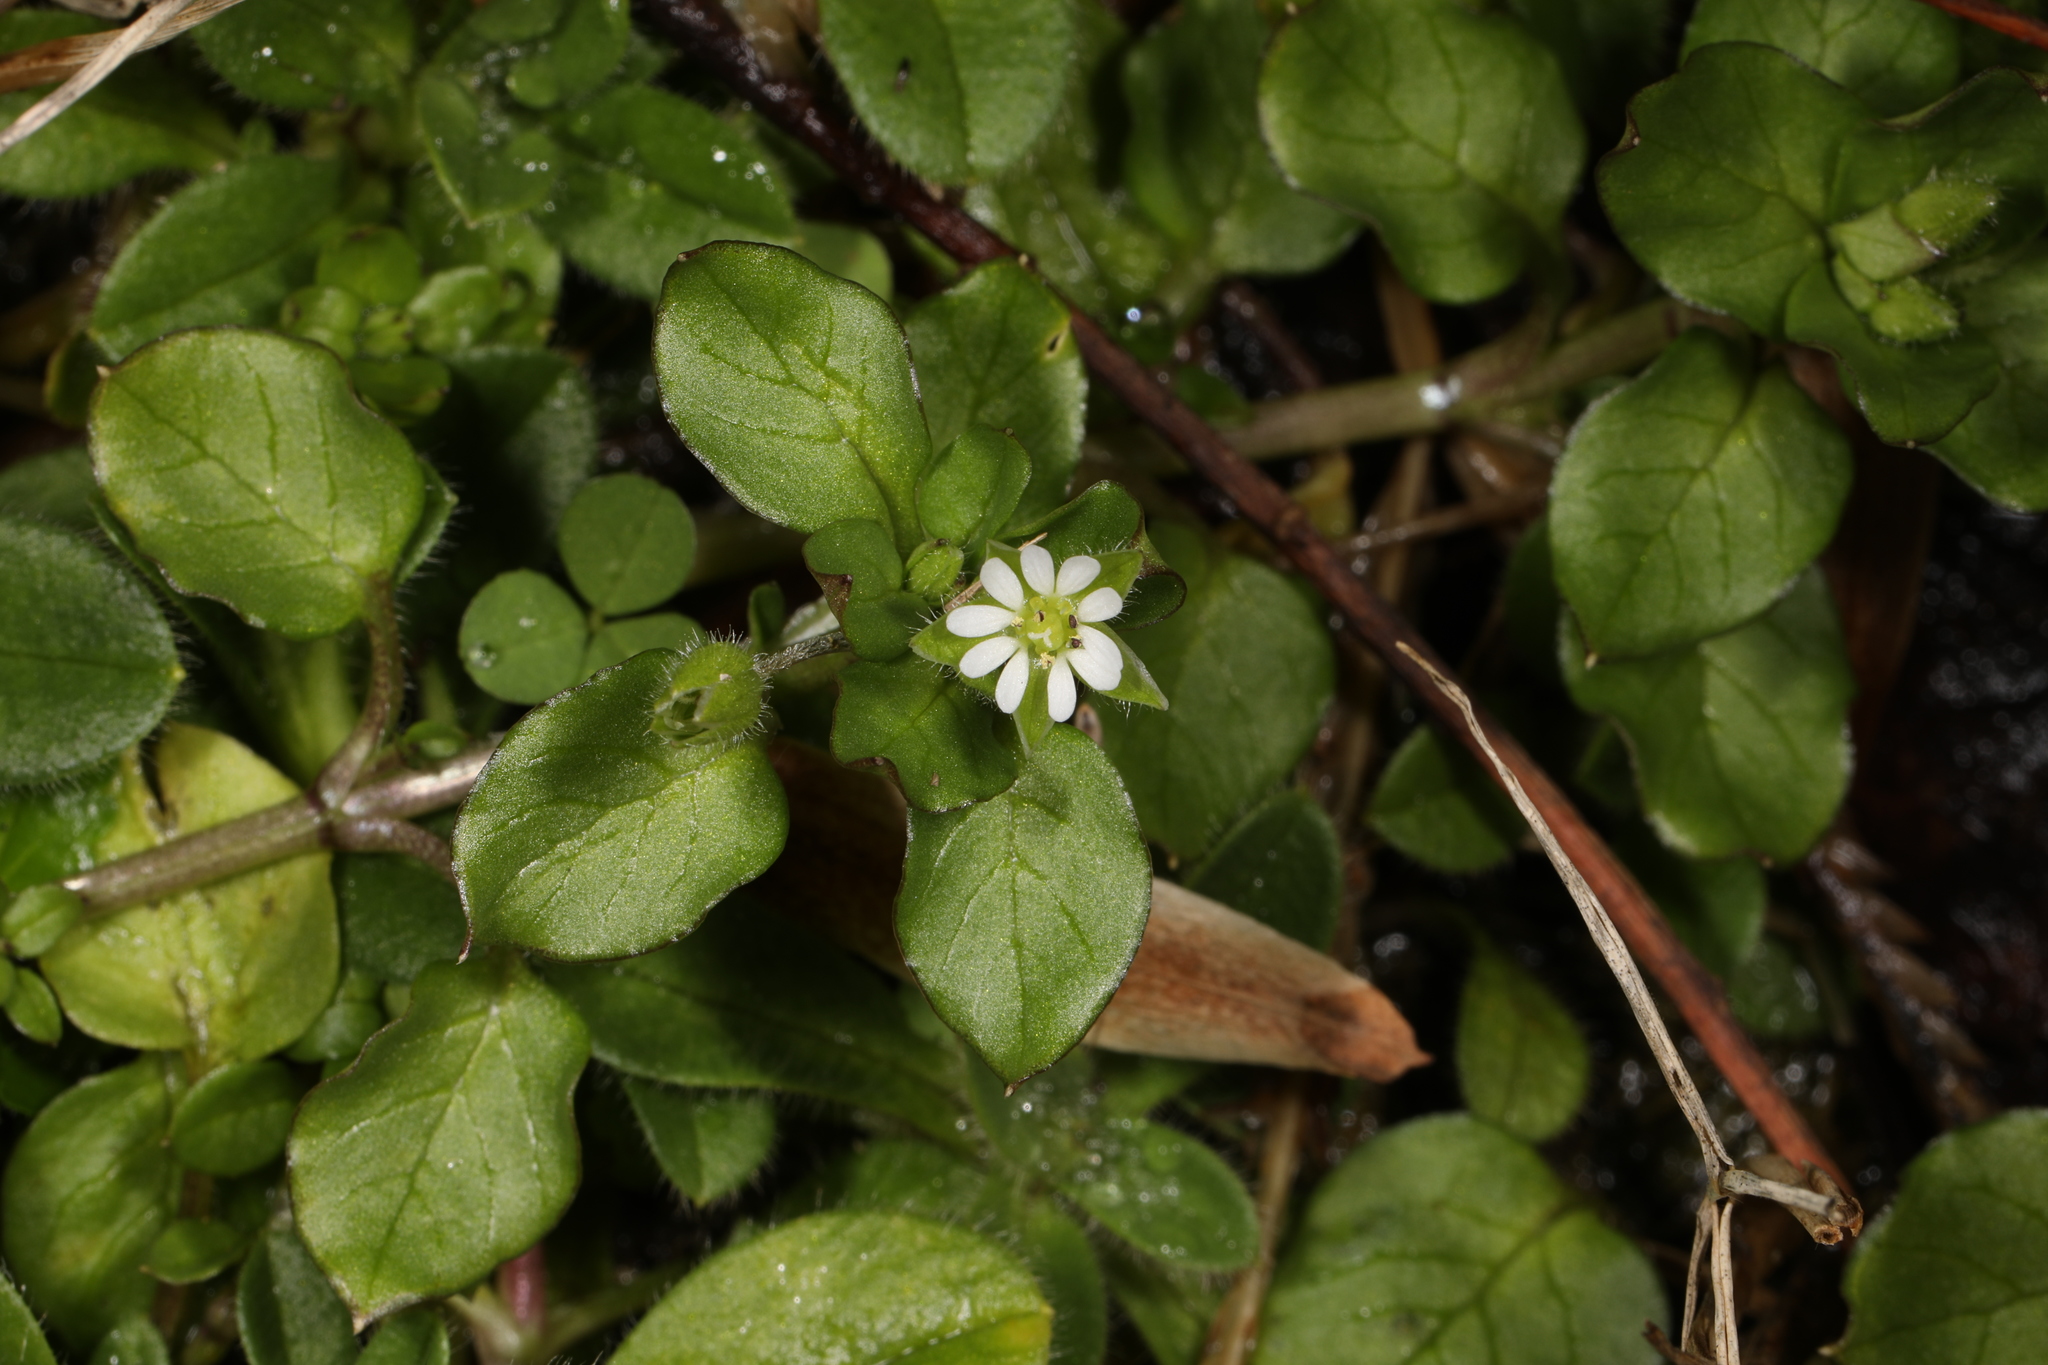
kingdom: Plantae
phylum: Tracheophyta
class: Magnoliopsida
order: Caryophyllales
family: Caryophyllaceae
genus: Stellaria
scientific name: Stellaria media
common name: Common chickweed
